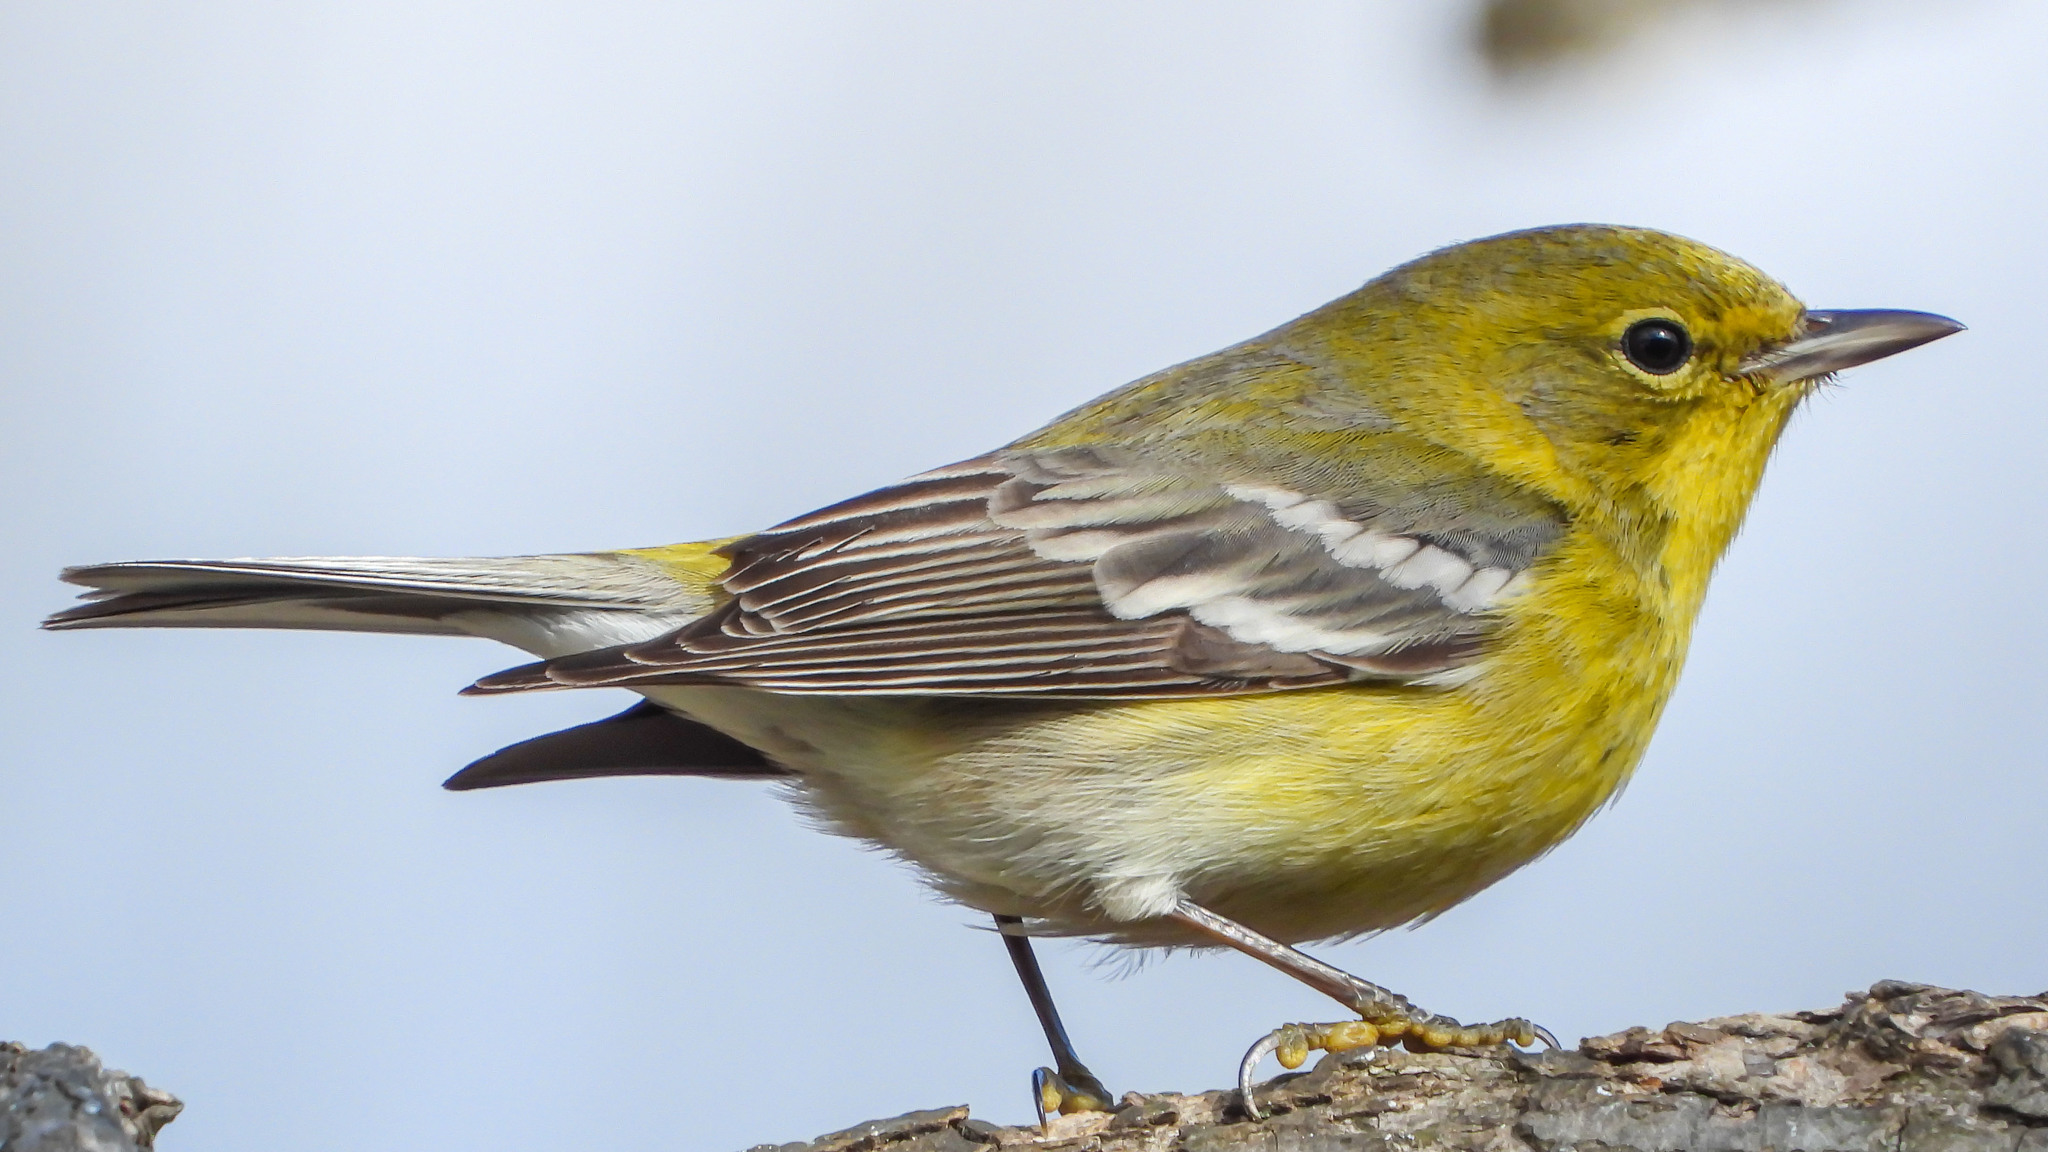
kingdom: Animalia
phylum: Chordata
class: Aves
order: Passeriformes
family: Parulidae
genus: Setophaga
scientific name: Setophaga pinus
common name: Pine warbler
